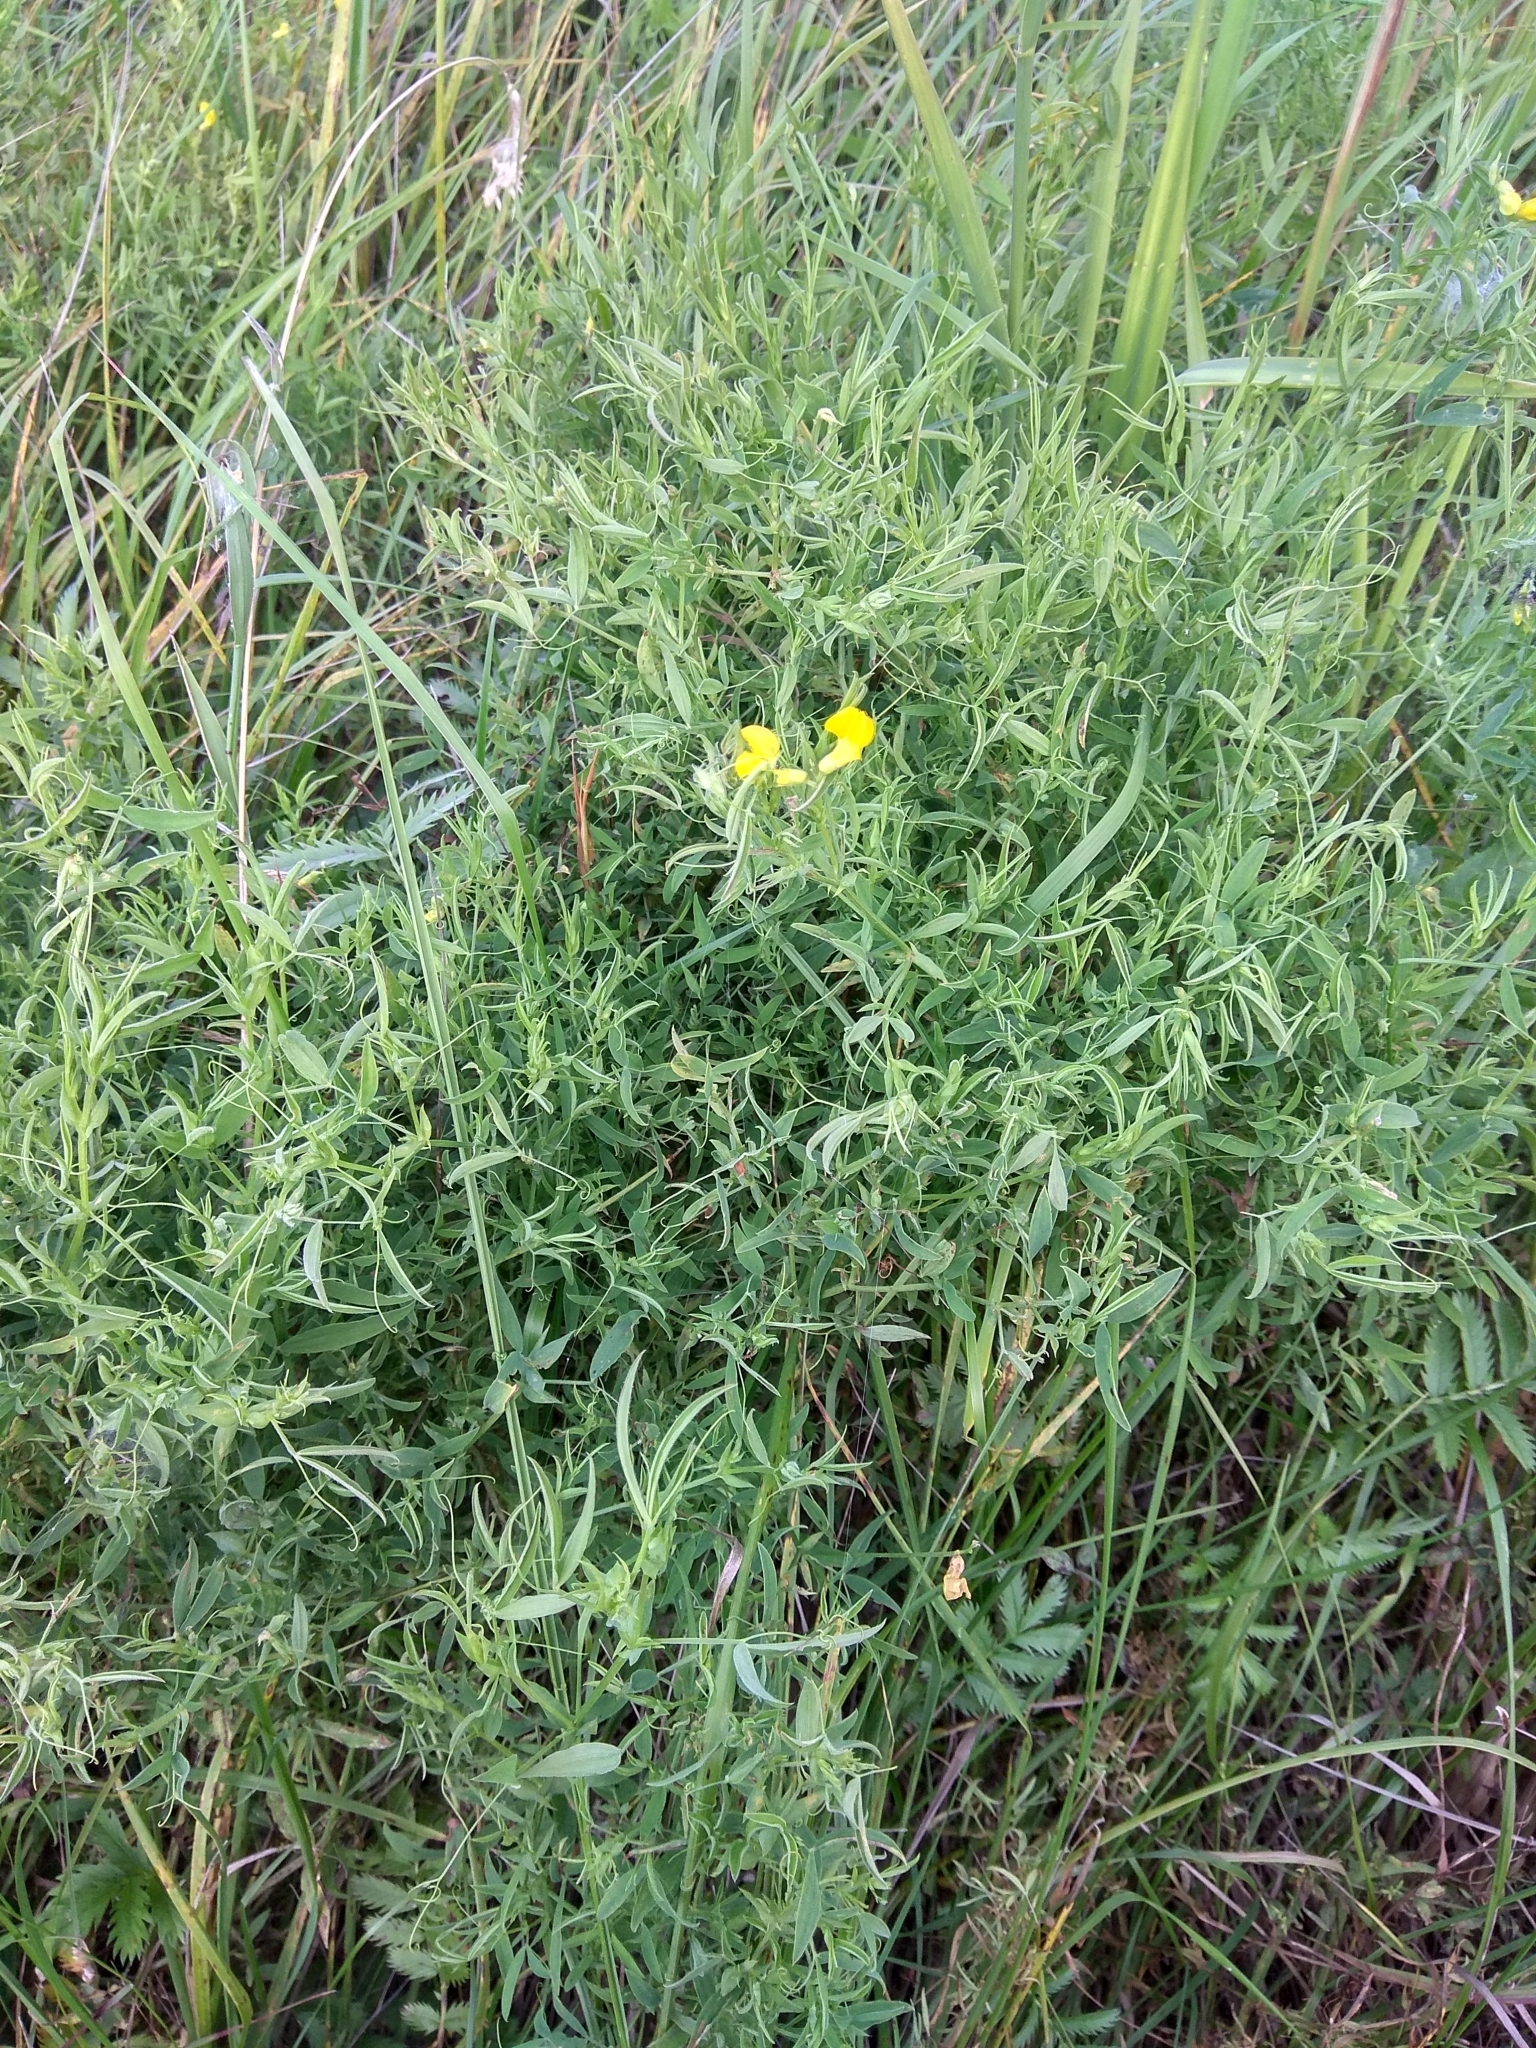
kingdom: Plantae
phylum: Tracheophyta
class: Magnoliopsida
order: Fabales
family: Fabaceae
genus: Lathyrus
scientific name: Lathyrus pratensis
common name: Meadow vetchling
